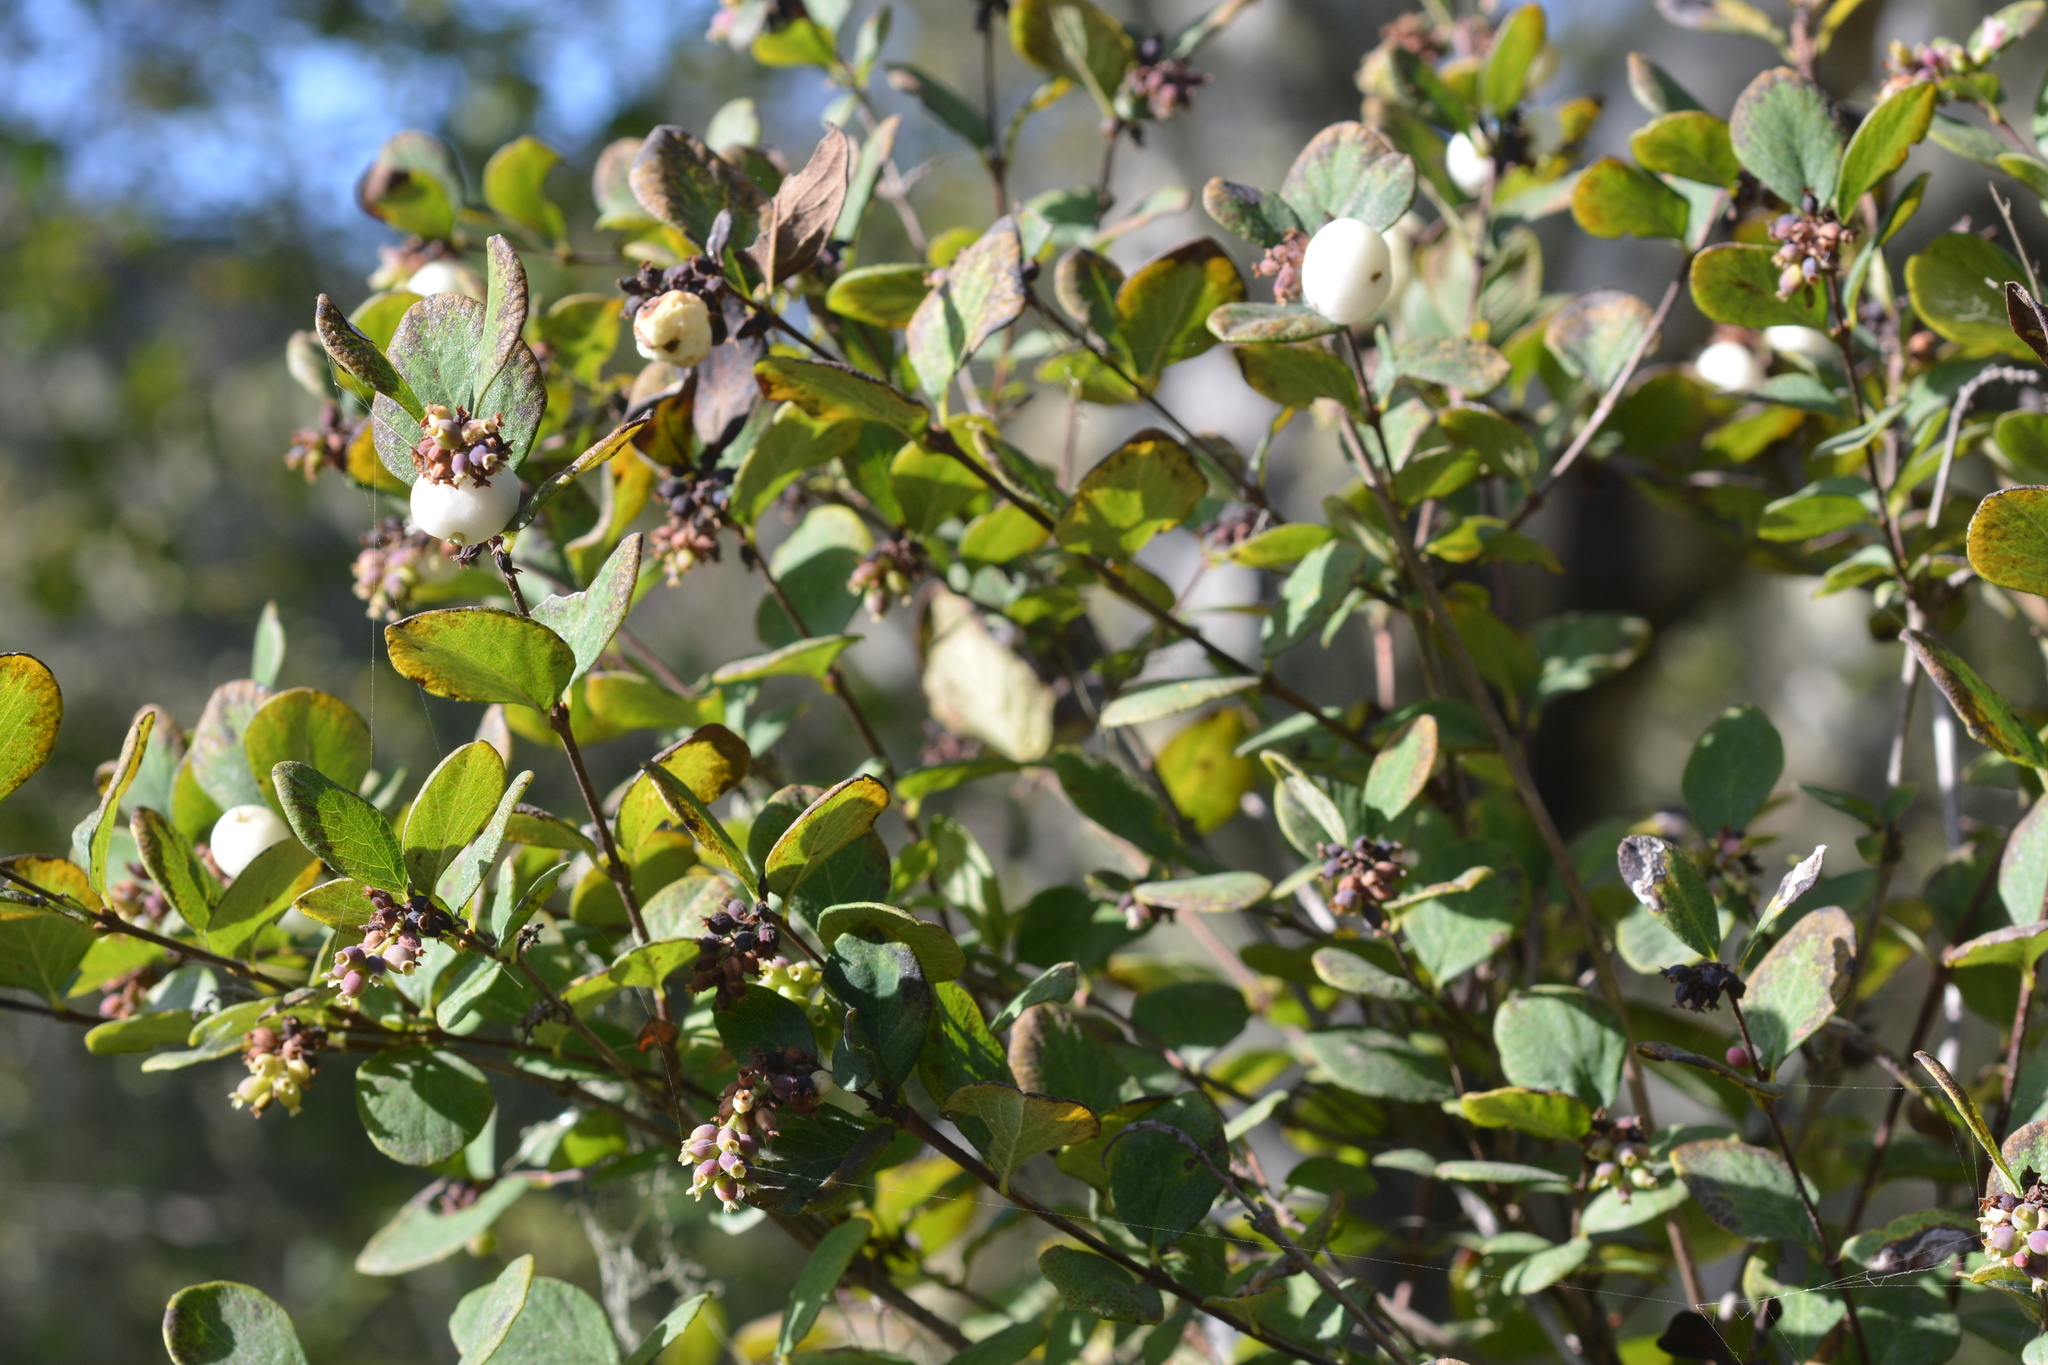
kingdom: Plantae
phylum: Tracheophyta
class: Magnoliopsida
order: Dipsacales
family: Caprifoliaceae
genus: Symphoricarpos
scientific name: Symphoricarpos albus
